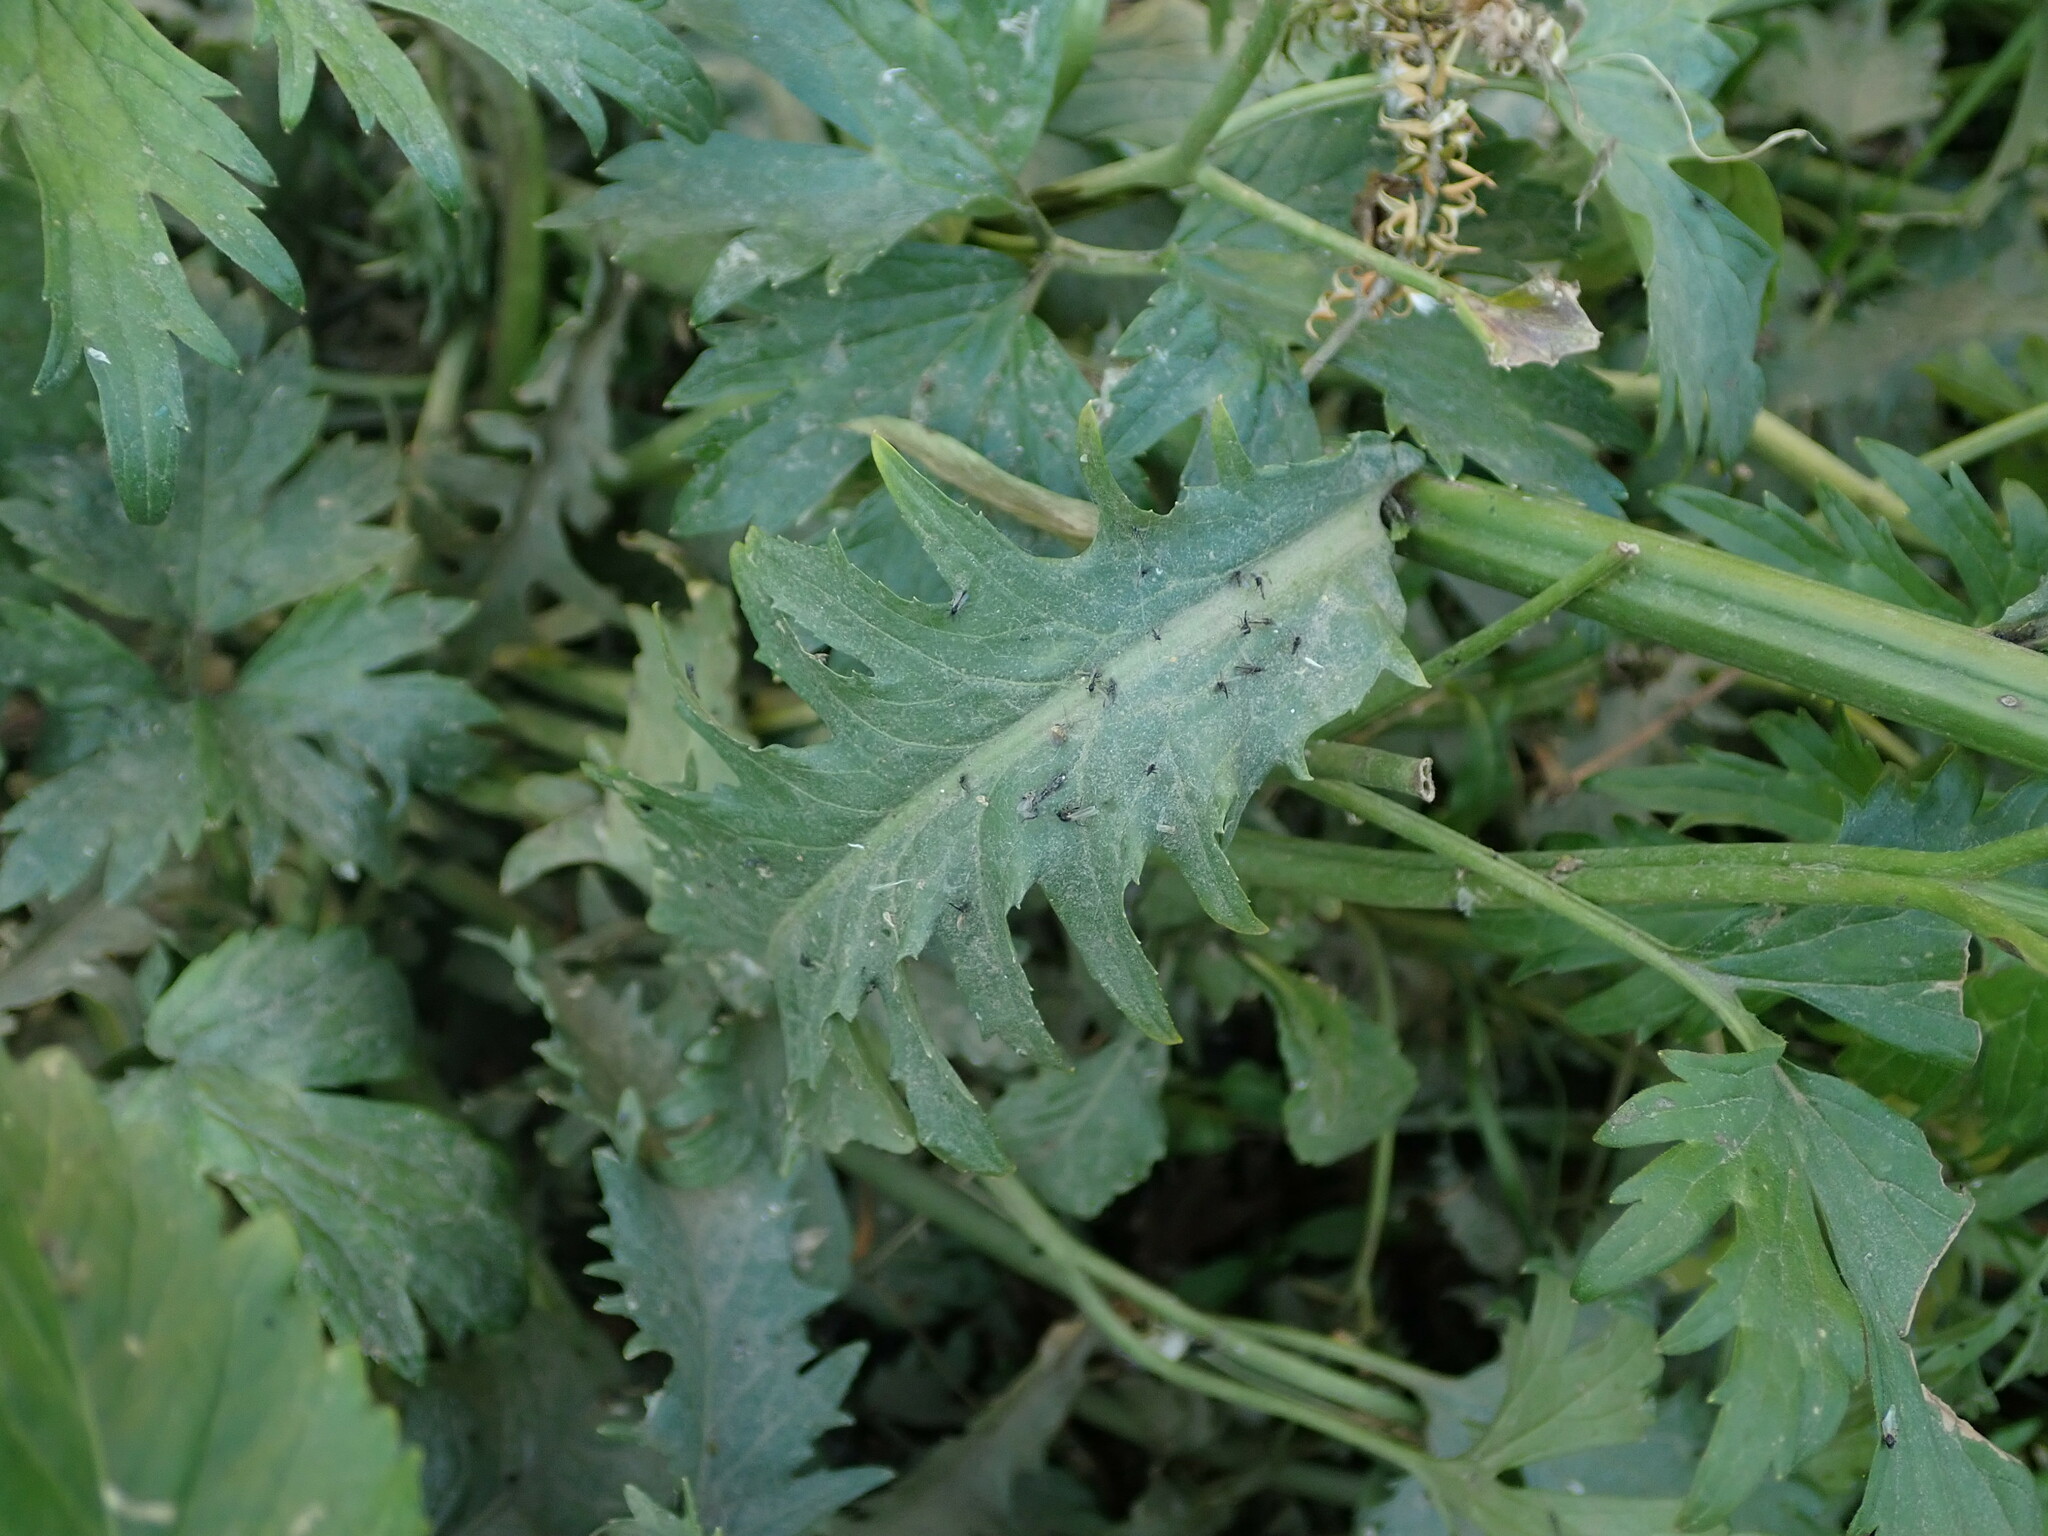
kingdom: Plantae
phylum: Tracheophyta
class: Magnoliopsida
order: Brassicales
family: Brassicaceae
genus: Rorippa
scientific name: Rorippa amphibia
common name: Great yellow-cress
